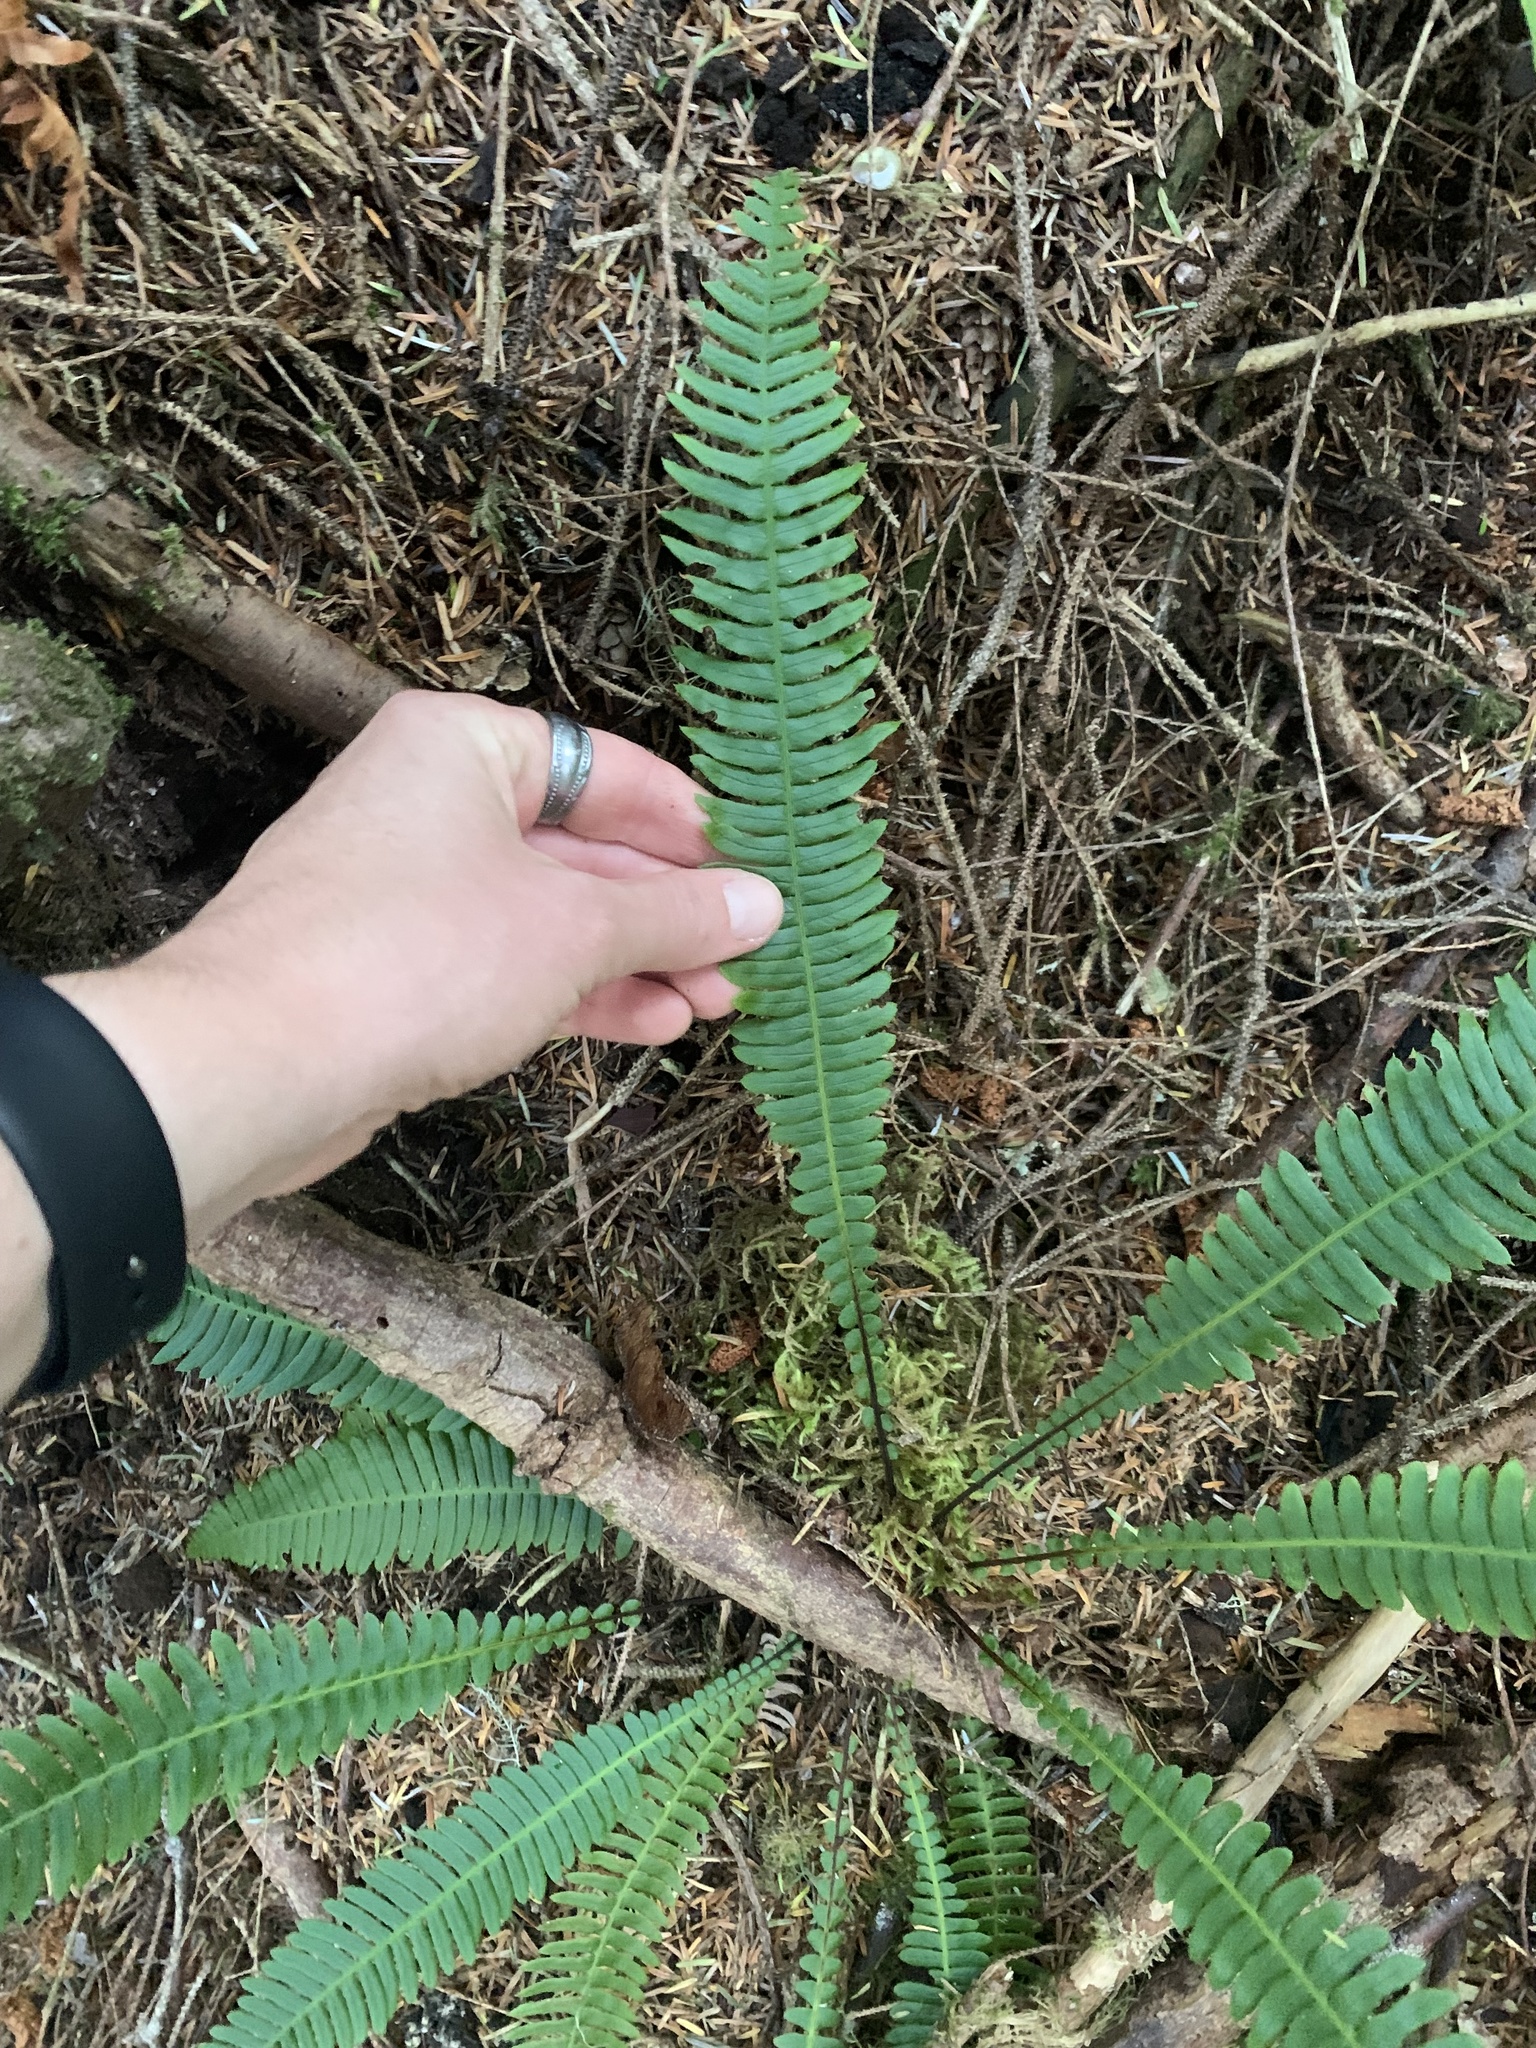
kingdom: Plantae
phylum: Tracheophyta
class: Polypodiopsida
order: Polypodiales
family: Blechnaceae
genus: Struthiopteris
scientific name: Struthiopteris spicant
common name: Deer fern
